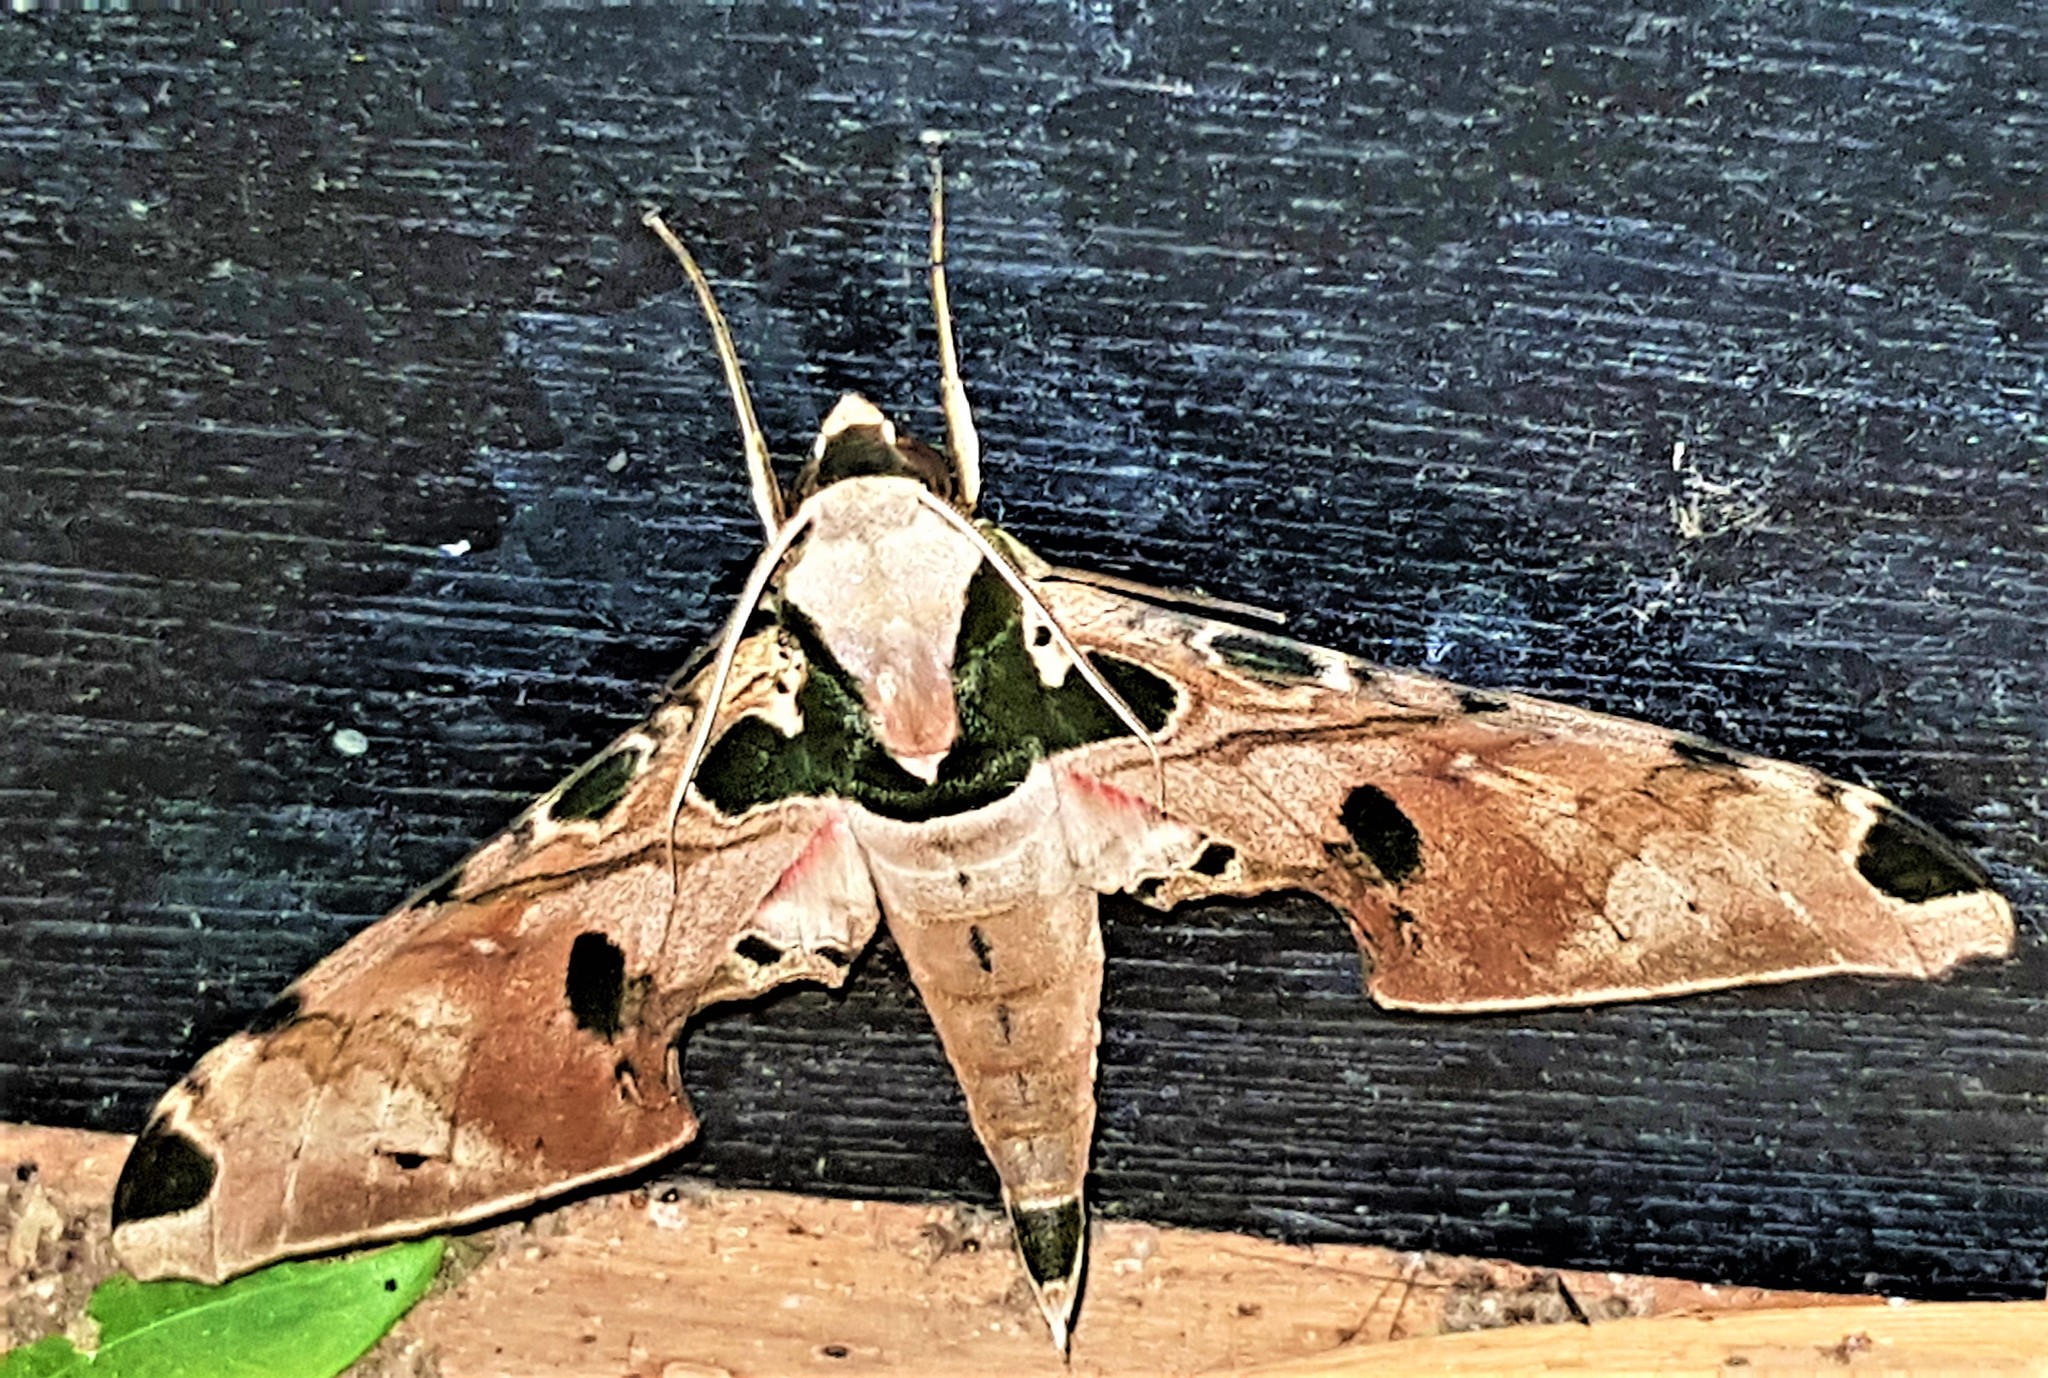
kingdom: Animalia
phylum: Arthropoda
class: Insecta
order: Lepidoptera
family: Sphingidae
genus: Adhemarius
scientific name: Adhemarius palmeri
